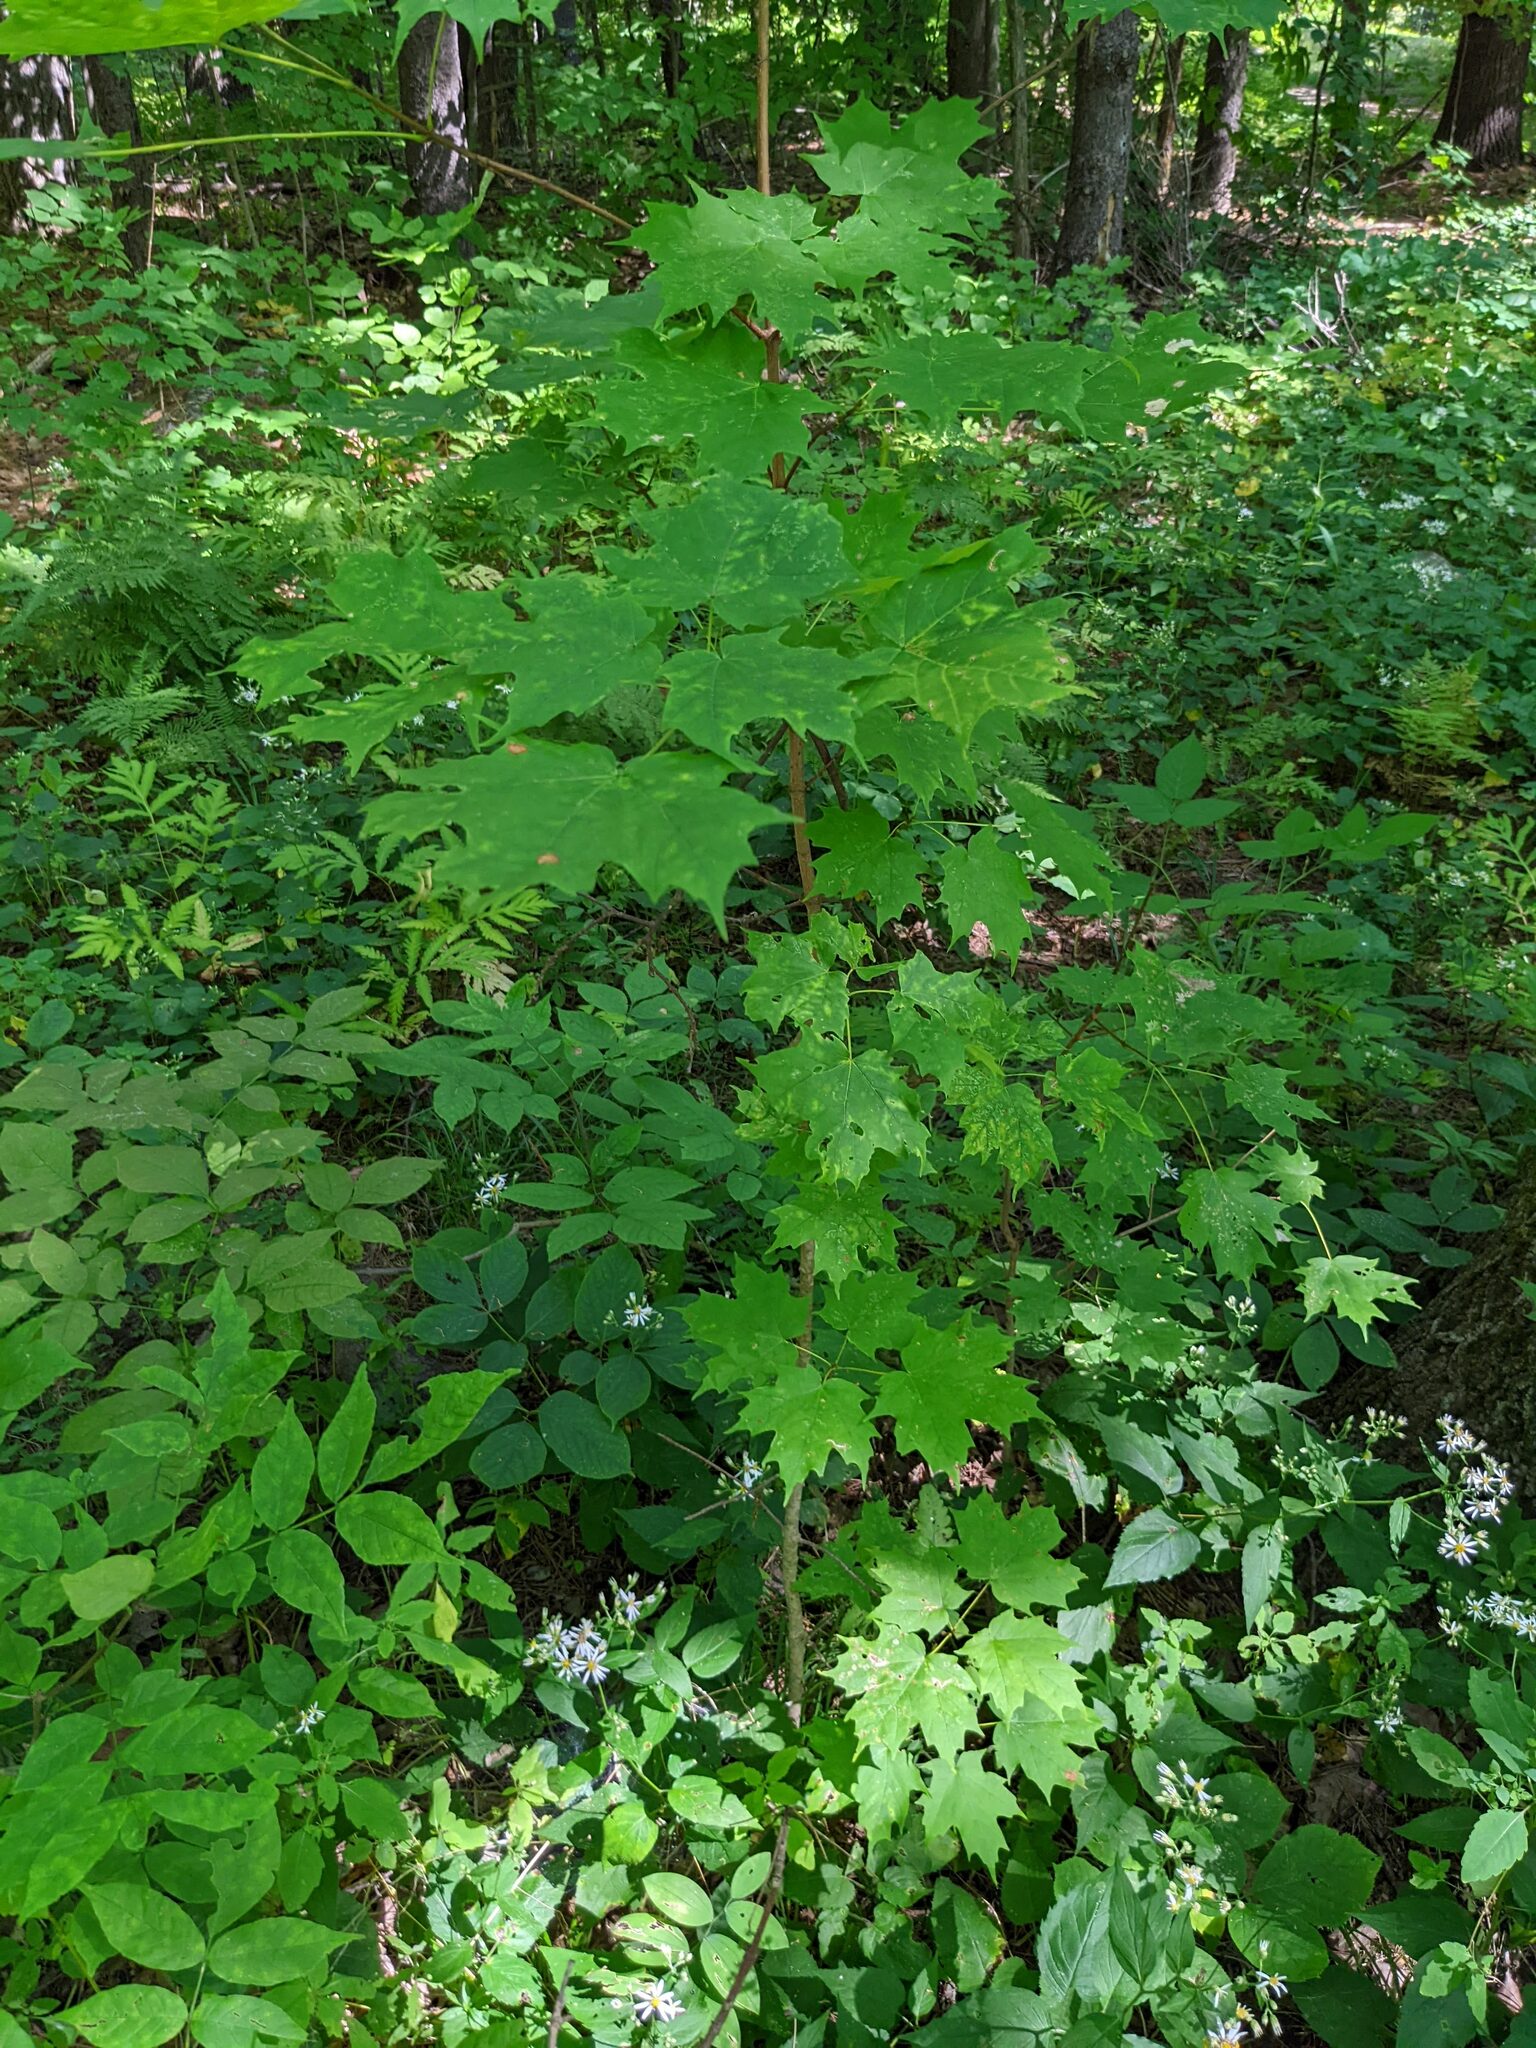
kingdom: Plantae
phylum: Tracheophyta
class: Magnoliopsida
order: Sapindales
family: Sapindaceae
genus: Acer
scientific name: Acer saccharum
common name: Sugar maple
